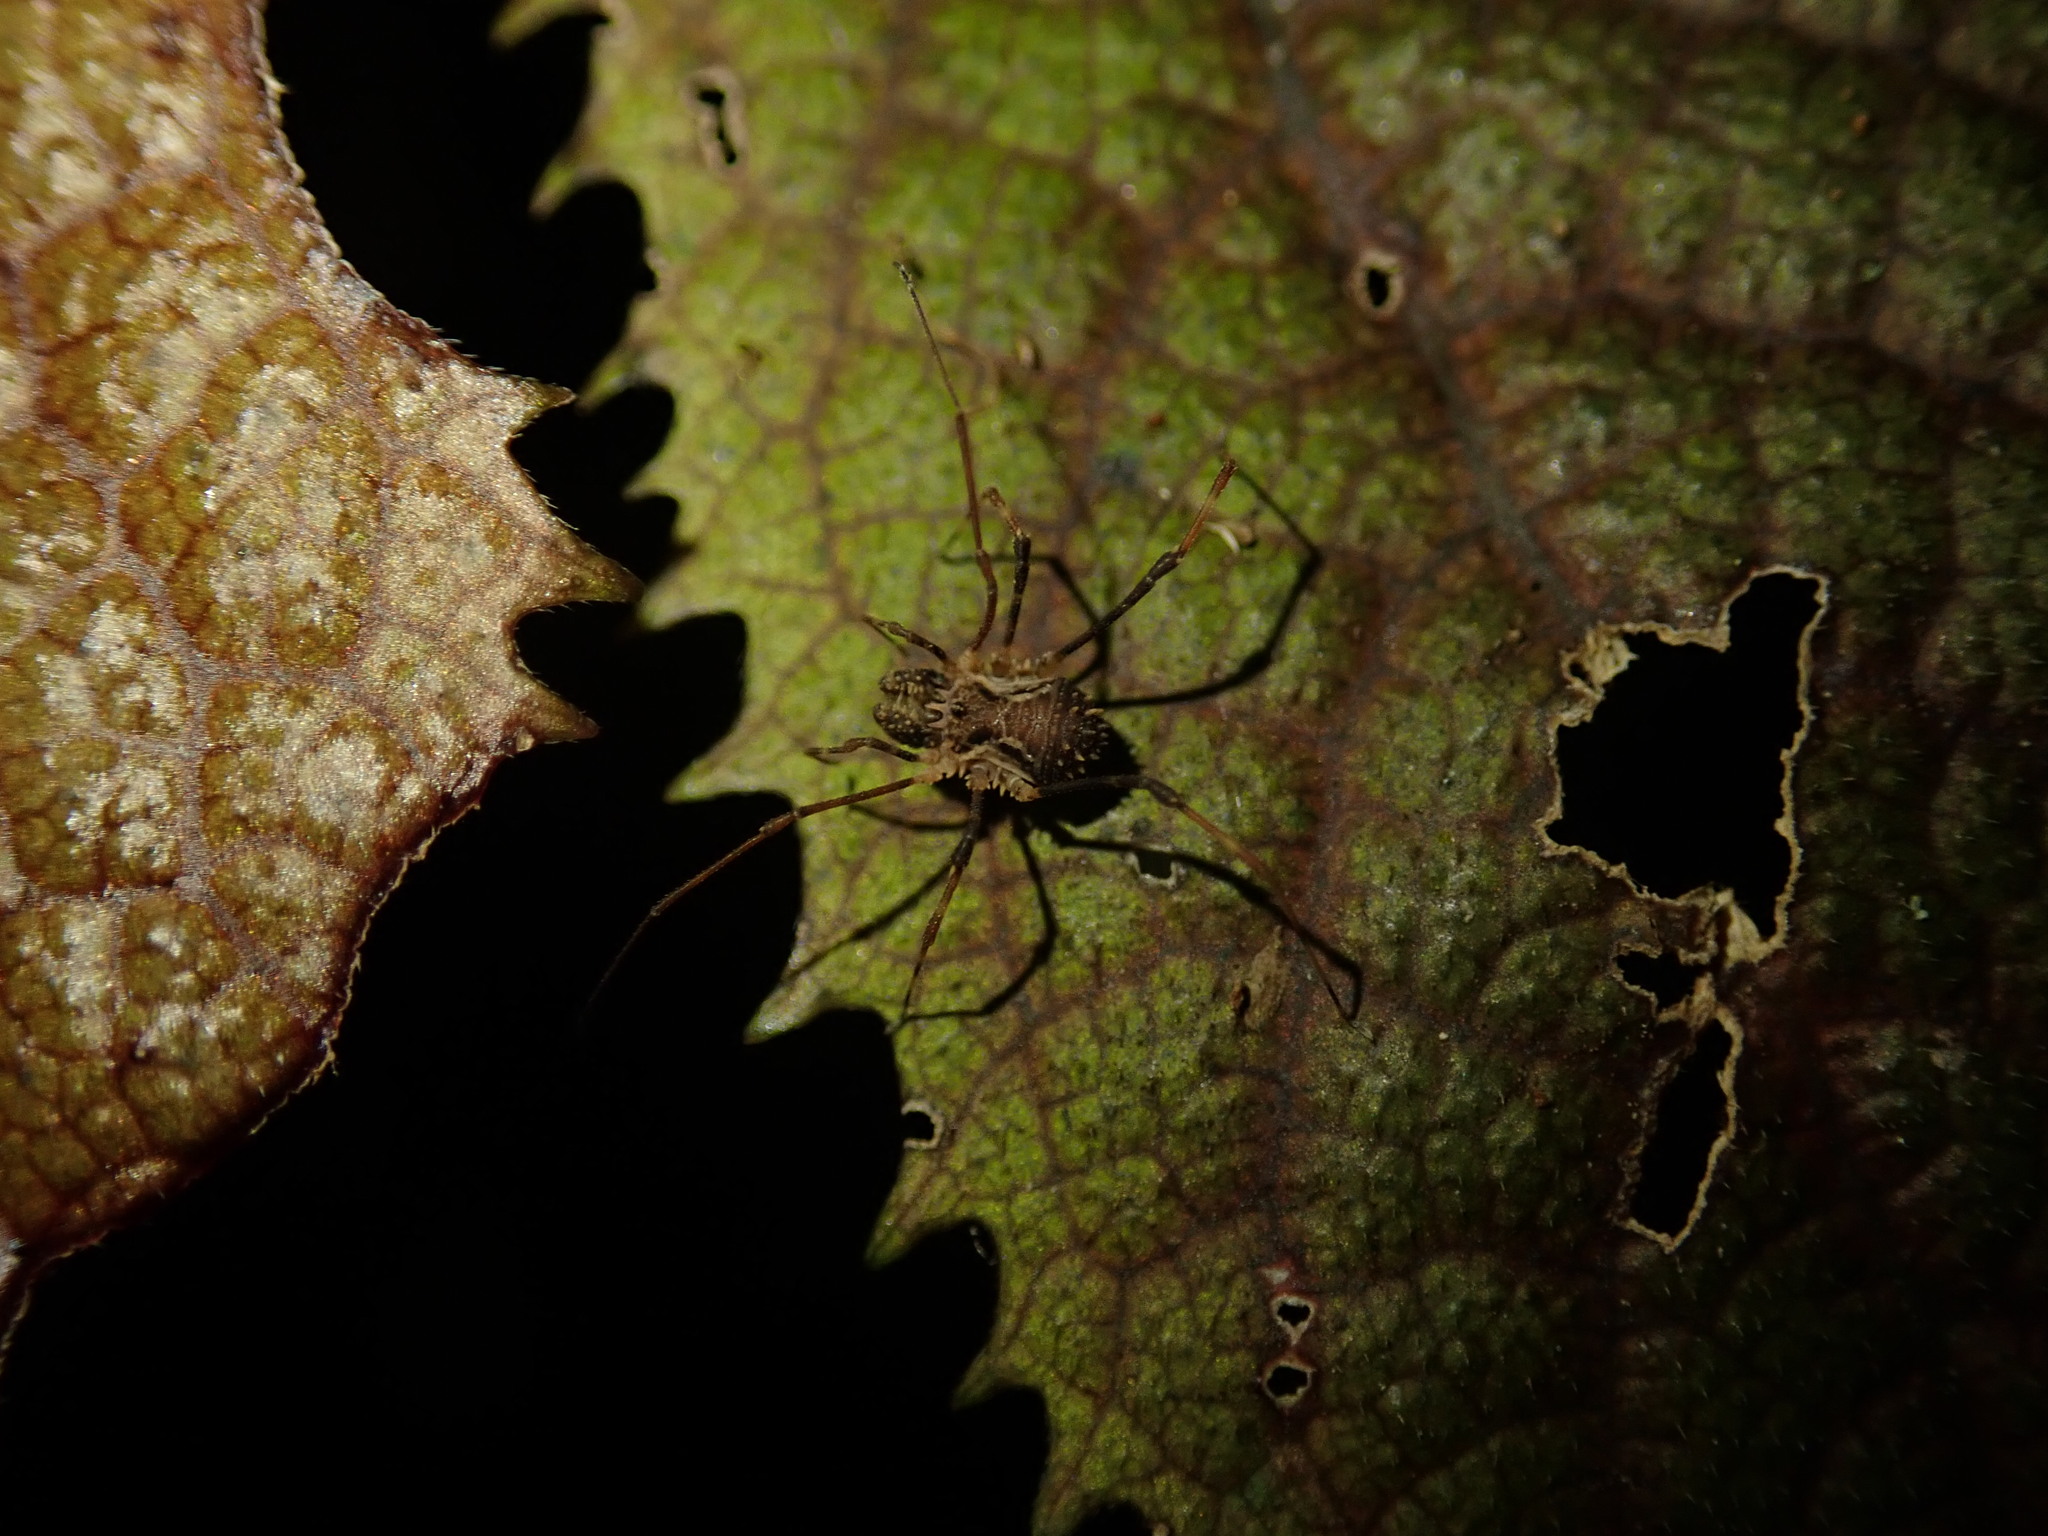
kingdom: Animalia
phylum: Arthropoda
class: Arachnida
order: Opiliones
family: Triaenonychidae
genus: Algidia
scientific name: Algidia chiltoni
